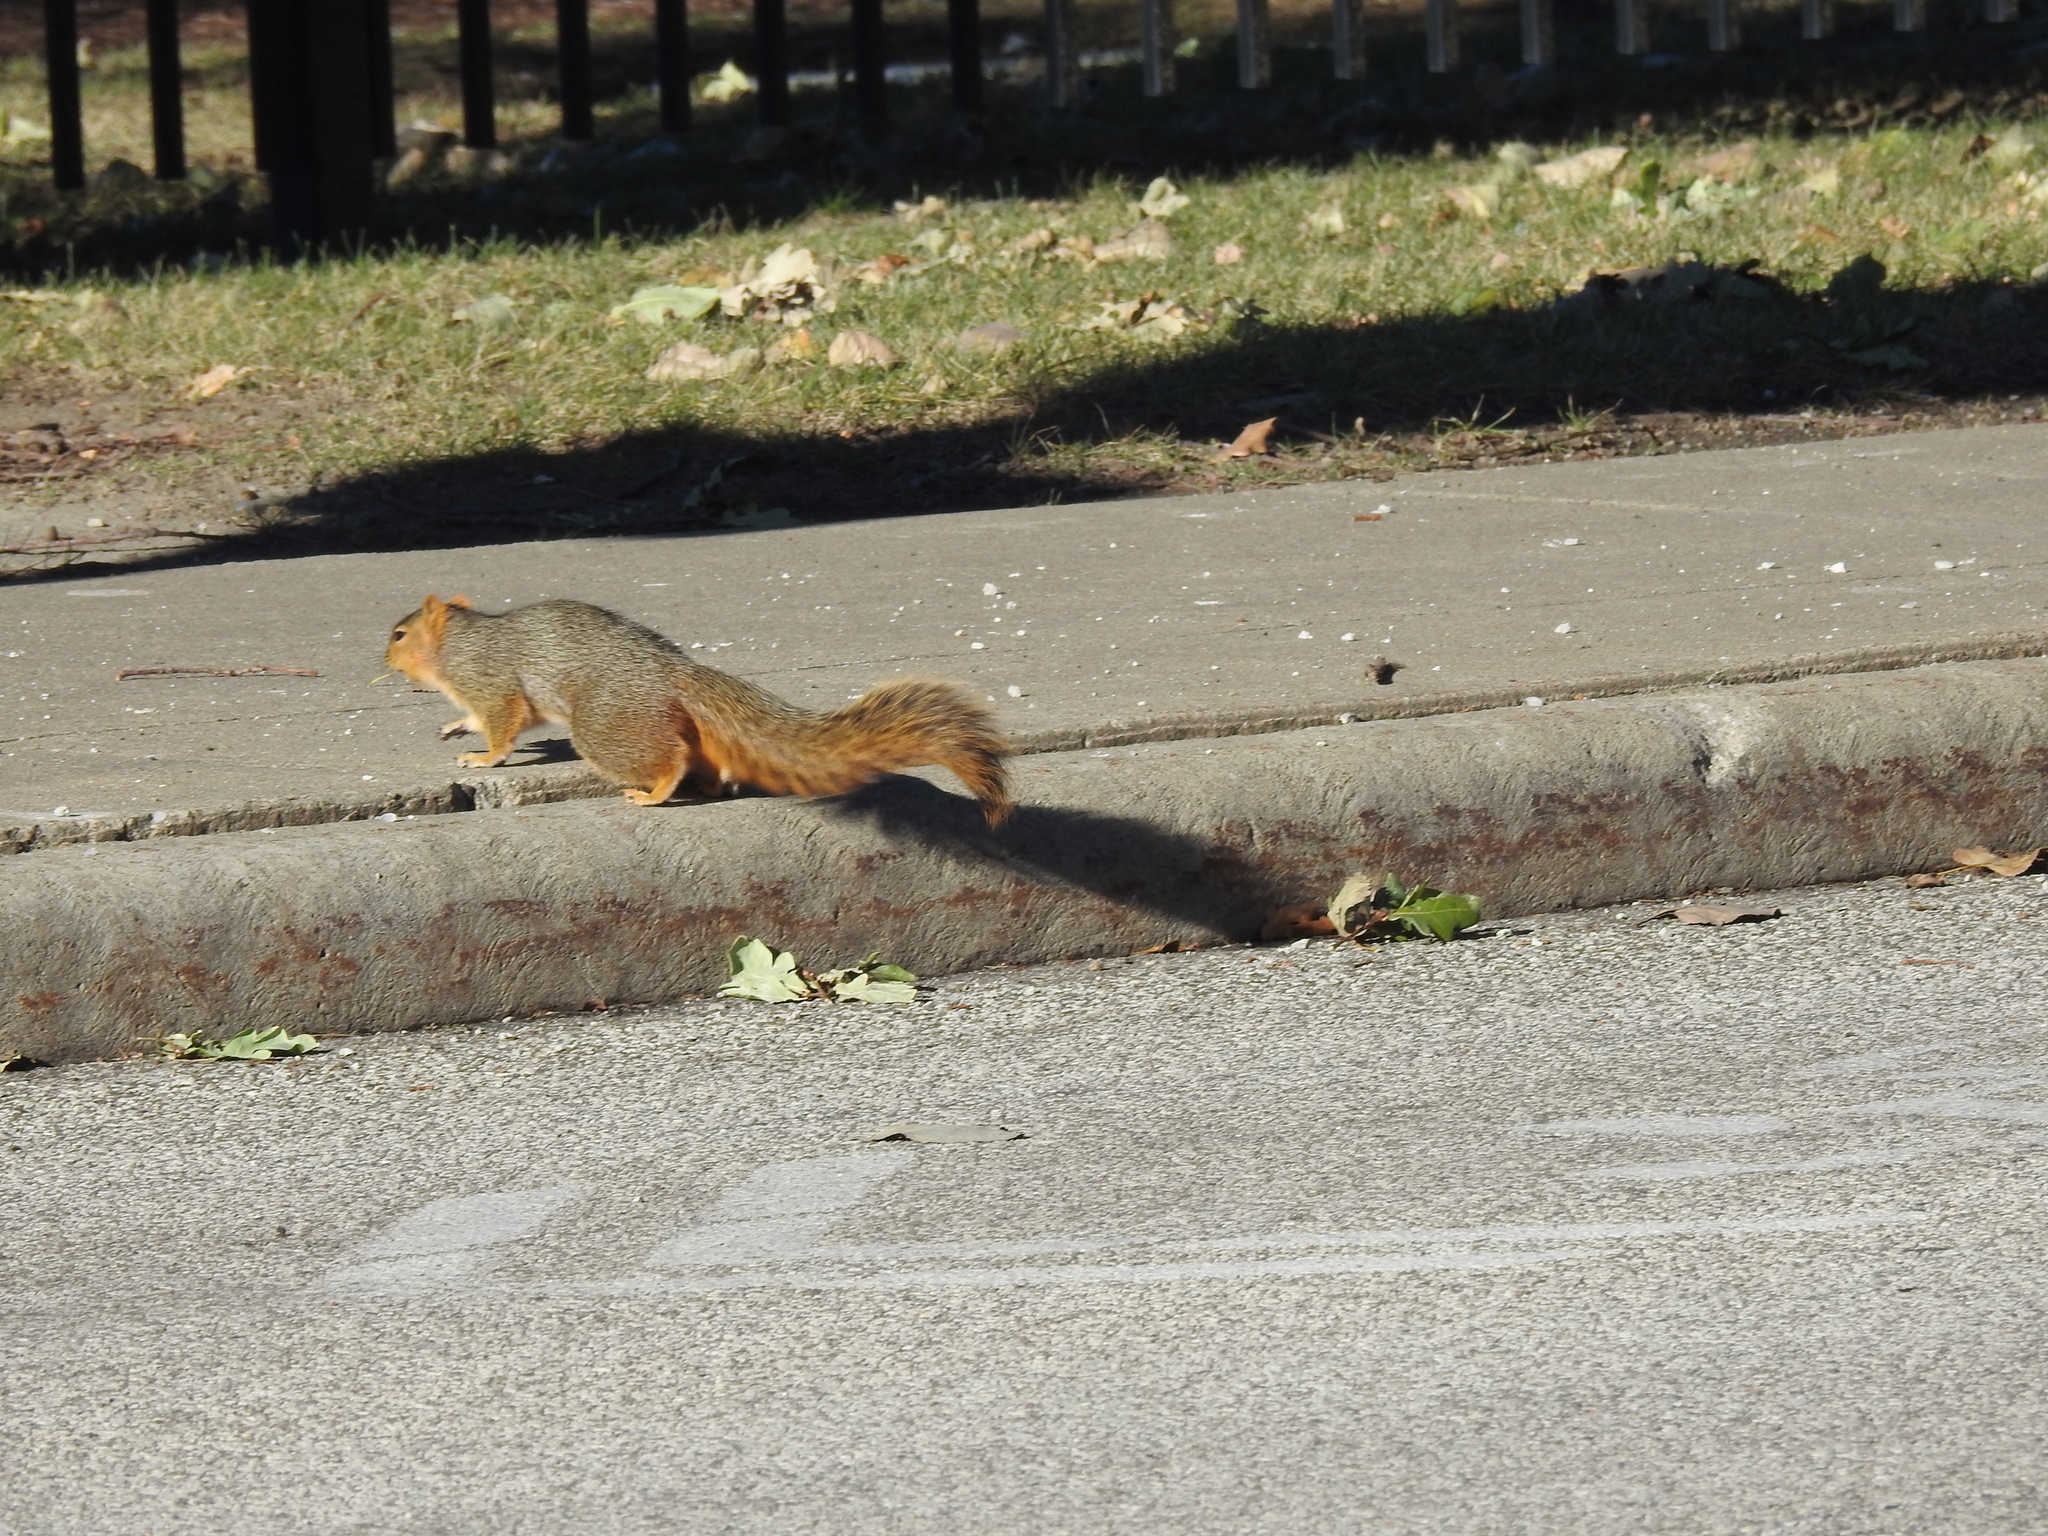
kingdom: Animalia
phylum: Chordata
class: Mammalia
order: Rodentia
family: Sciuridae
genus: Sciurus
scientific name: Sciurus niger
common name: Fox squirrel
